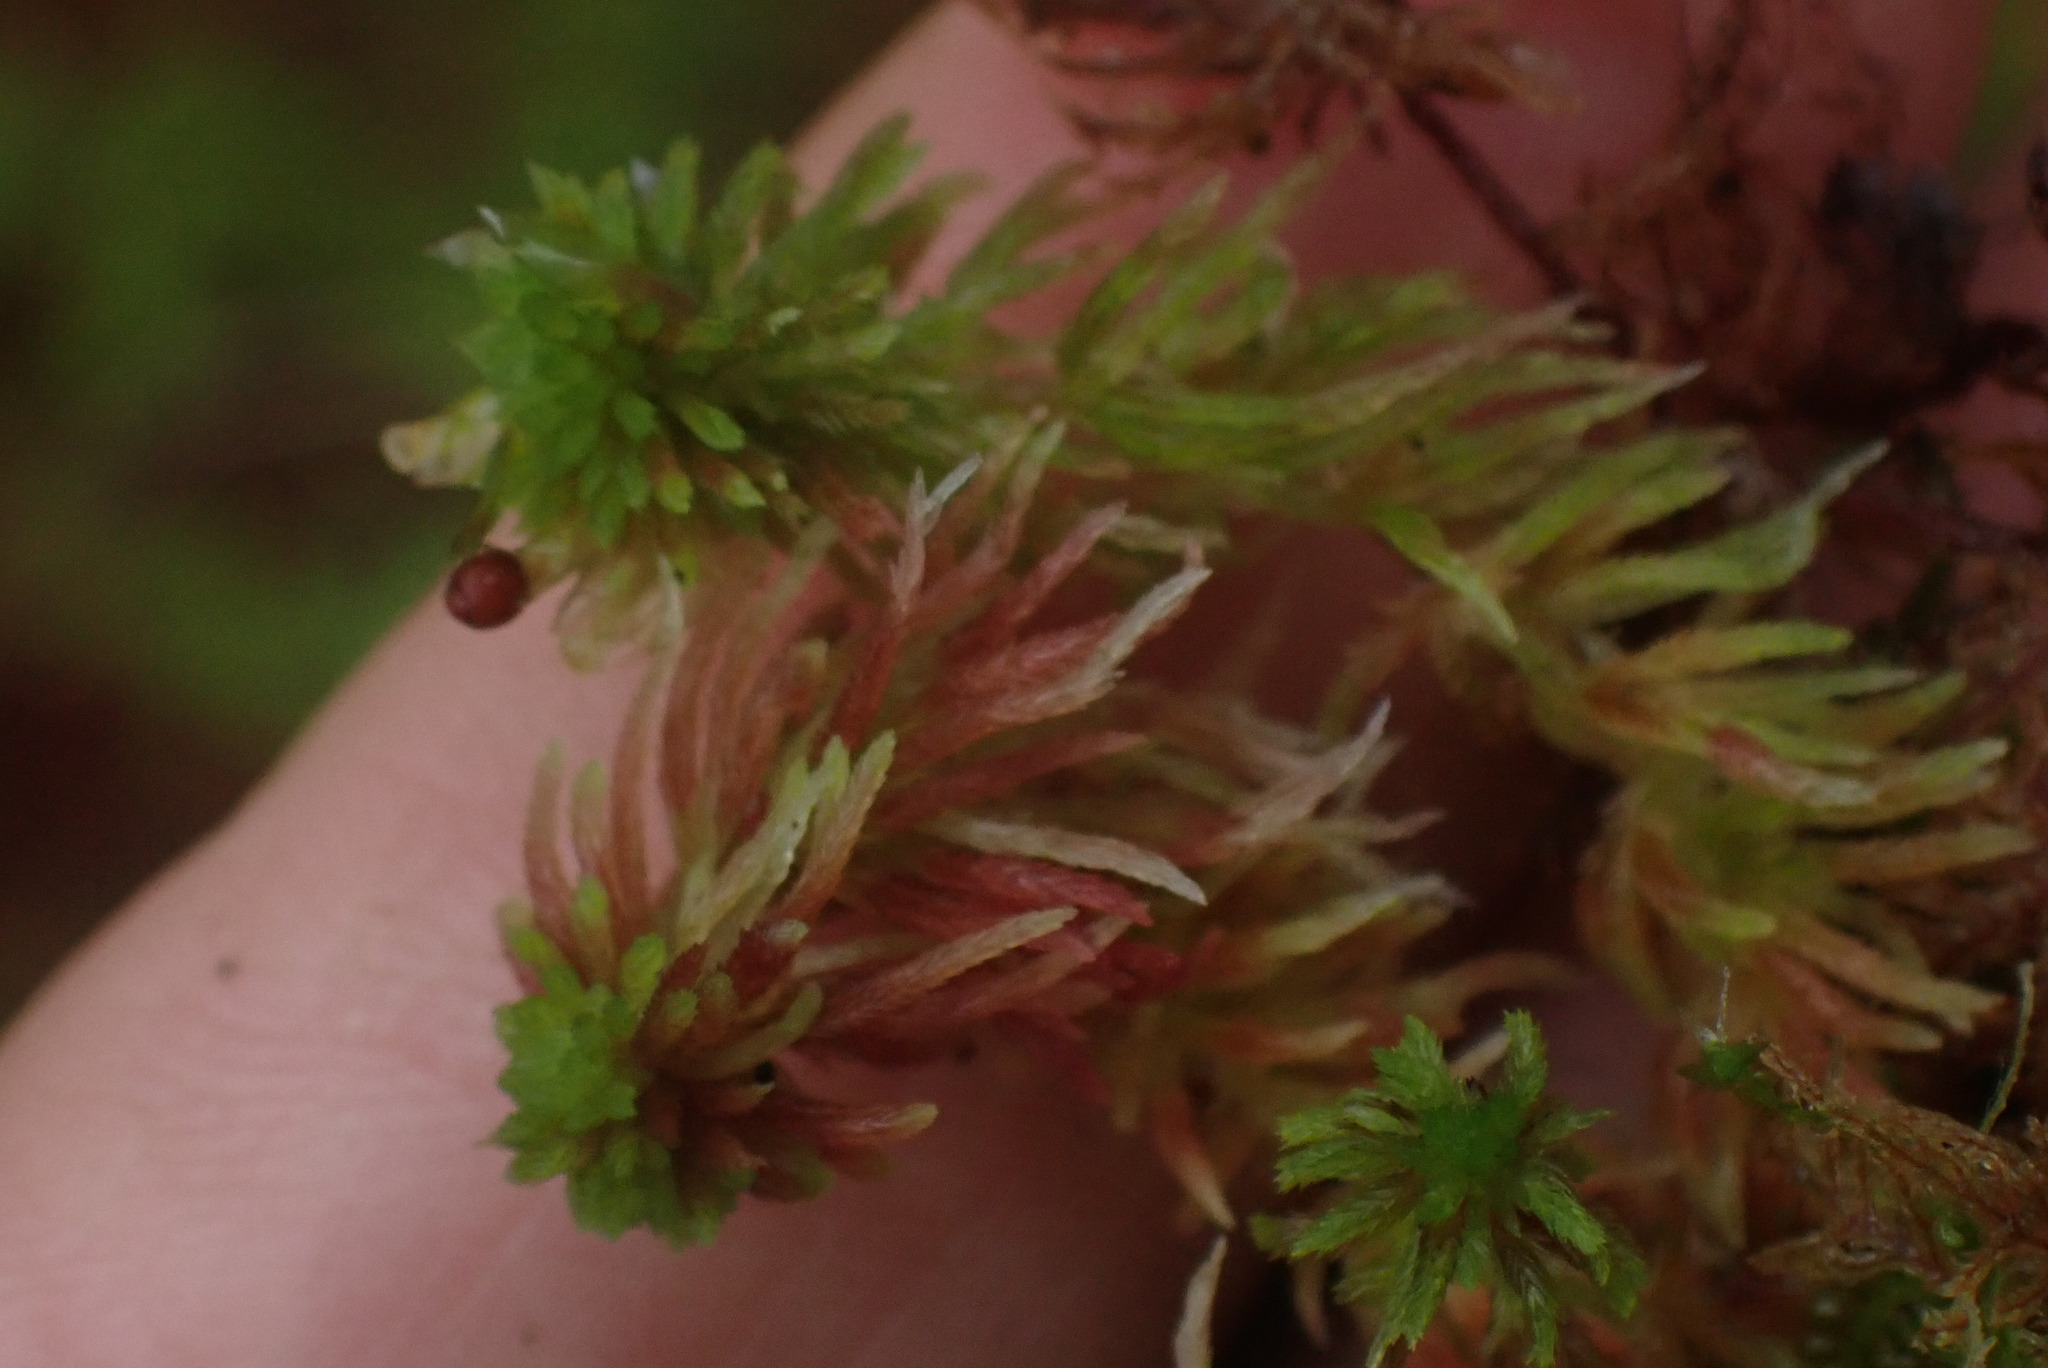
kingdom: Plantae
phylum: Bryophyta
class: Sphagnopsida
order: Sphagnales
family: Sphagnaceae
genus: Sphagnum
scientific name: Sphagnum quinquefarium
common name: Five-ranked peat moss
